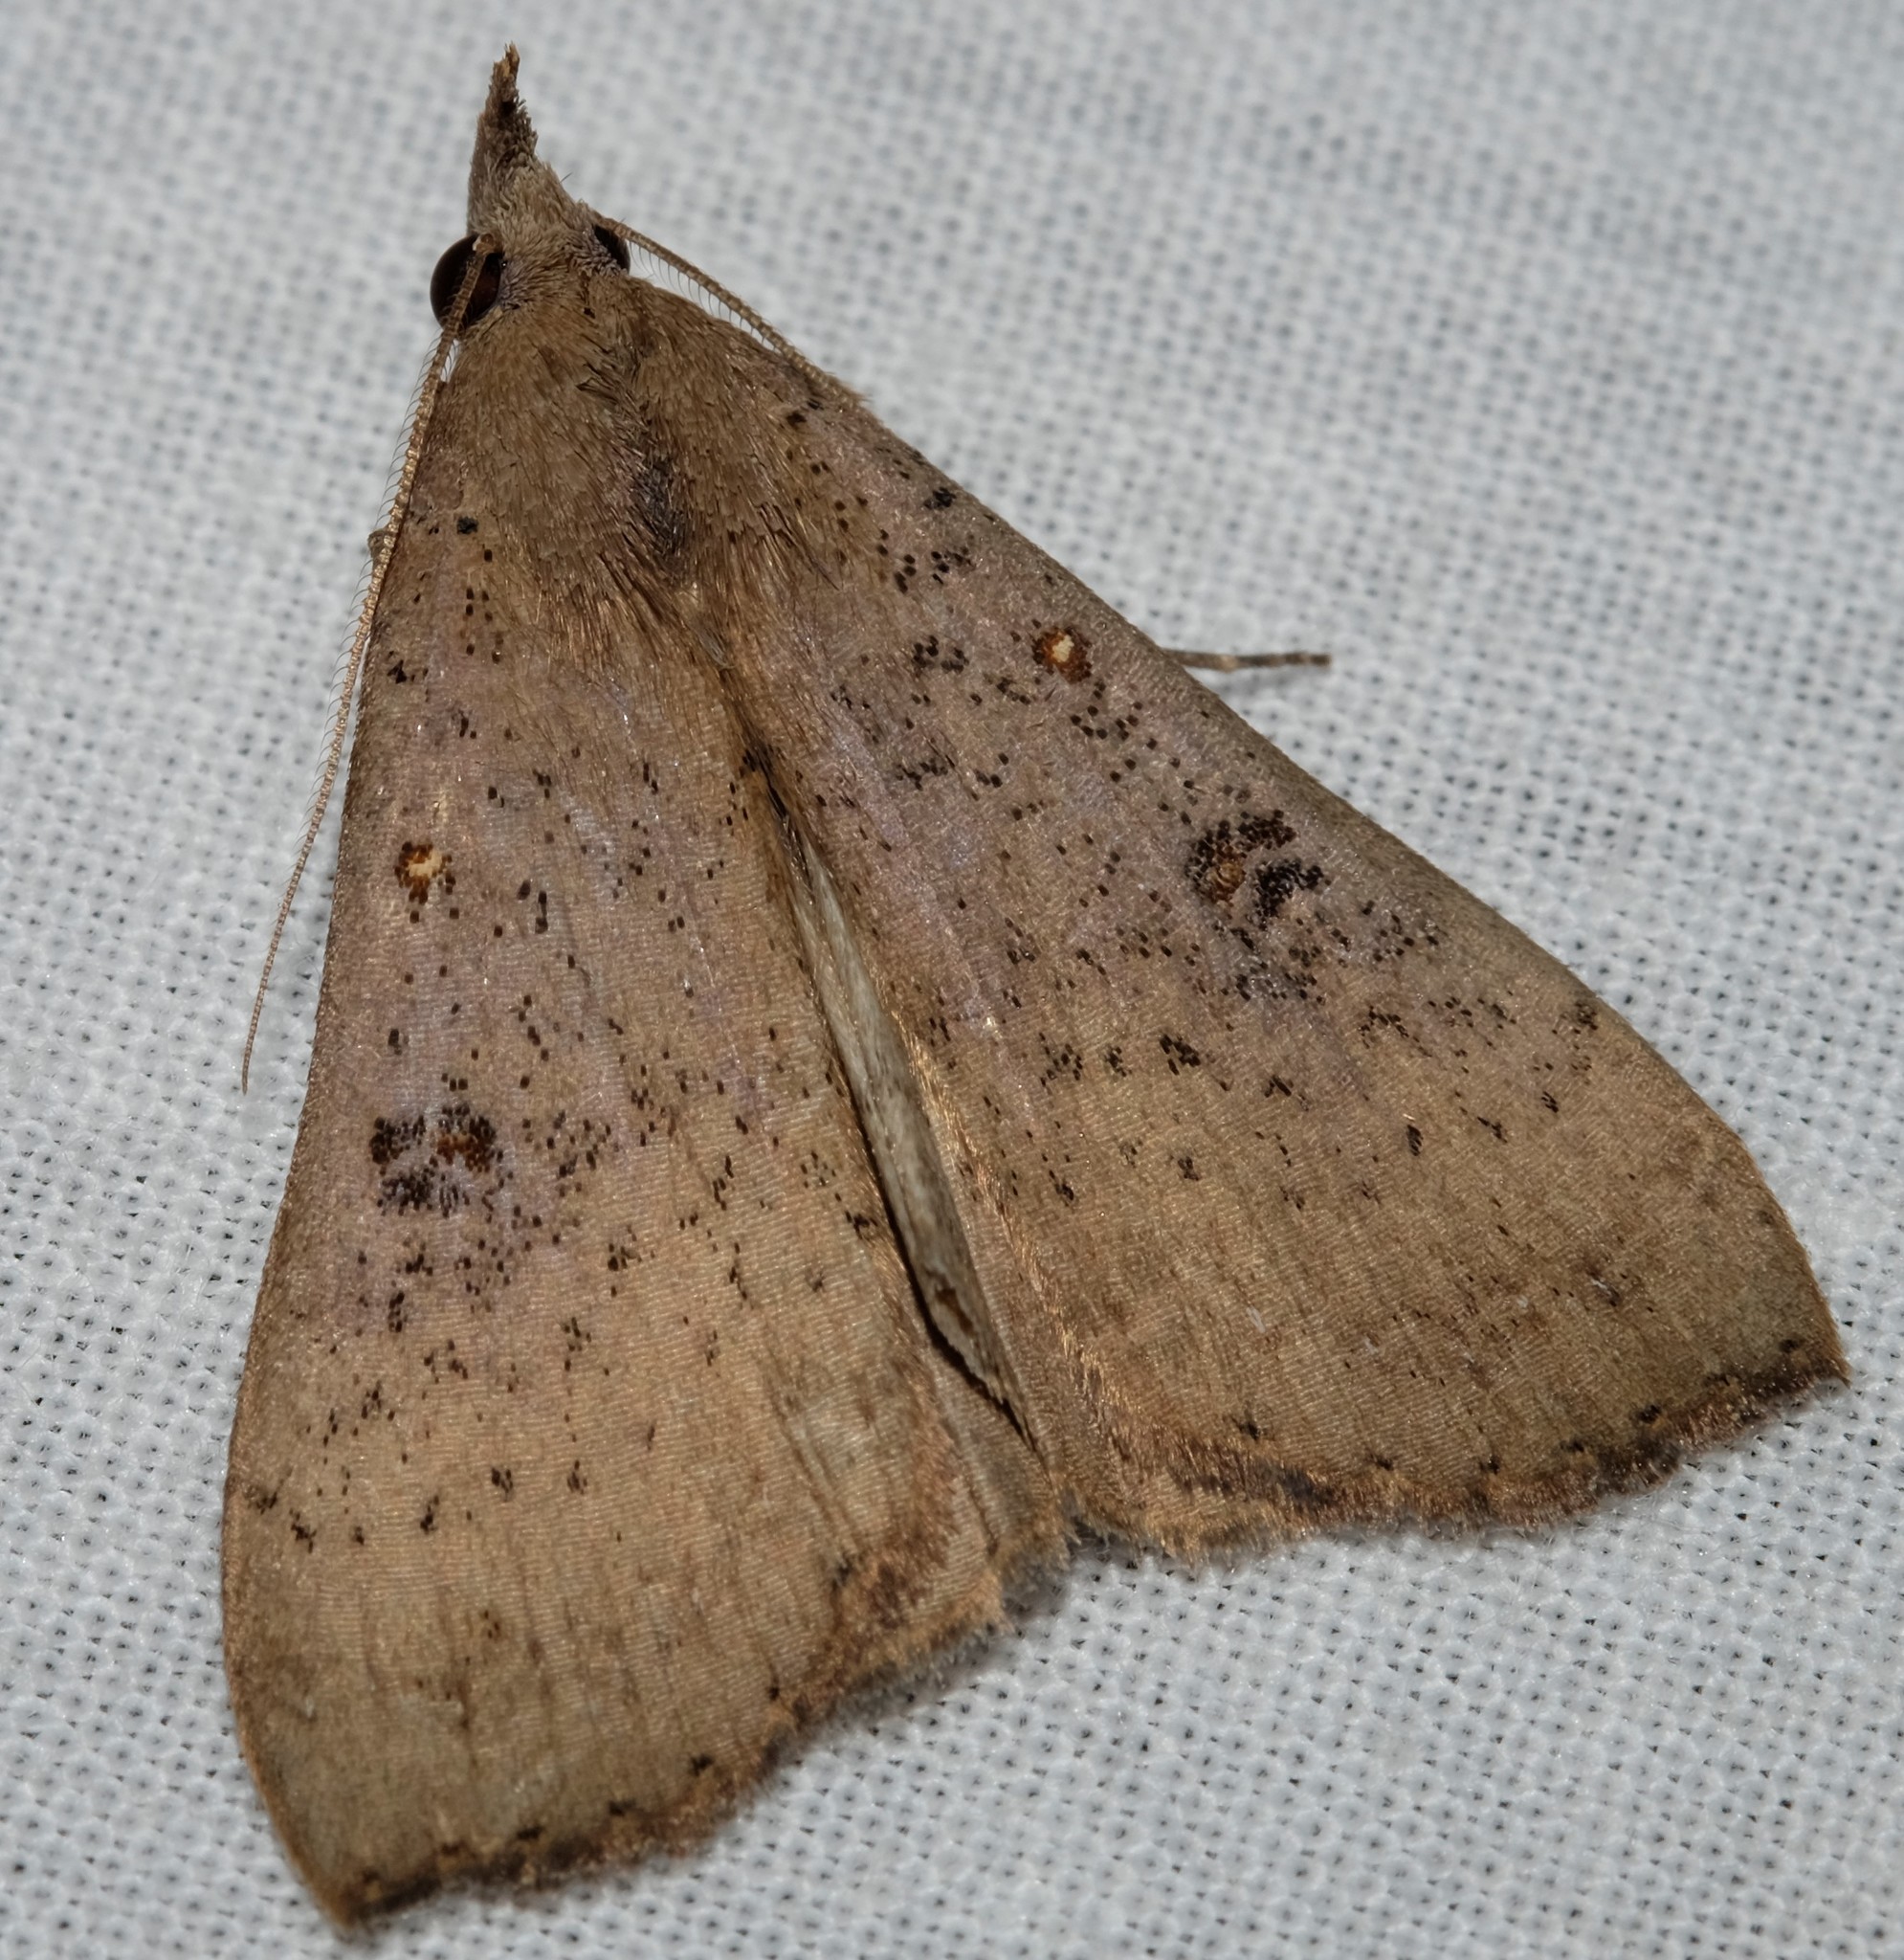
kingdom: Animalia
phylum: Arthropoda
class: Insecta
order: Lepidoptera
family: Erebidae
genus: Rhapsa
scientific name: Rhapsa suscitatalis
